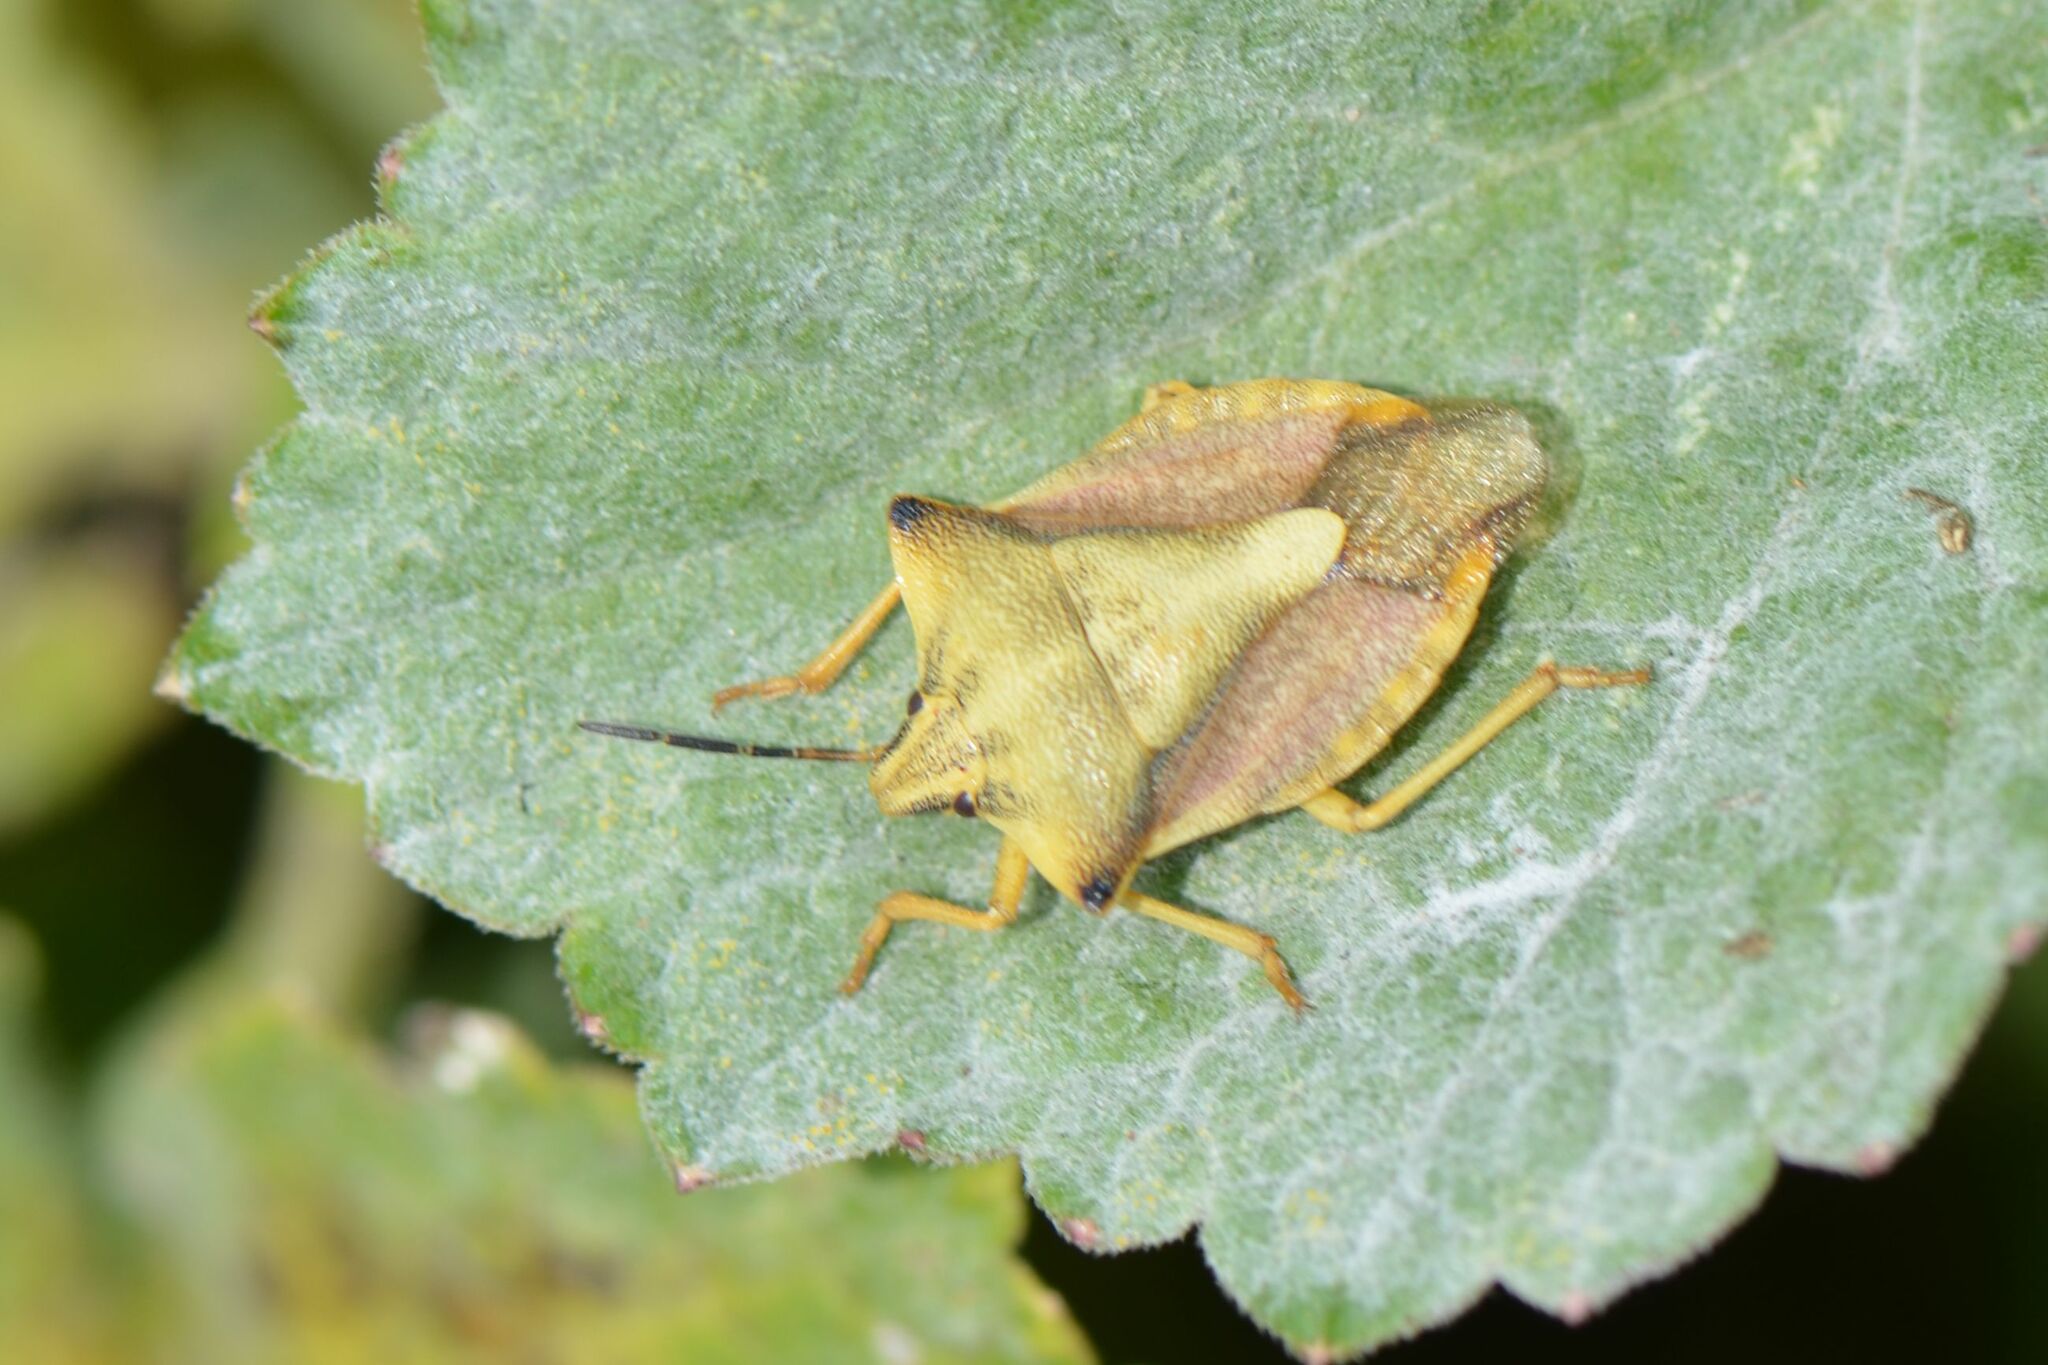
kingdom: Animalia
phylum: Arthropoda
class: Insecta
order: Hemiptera
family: Pentatomidae
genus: Carpocoris
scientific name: Carpocoris fuscispinus
